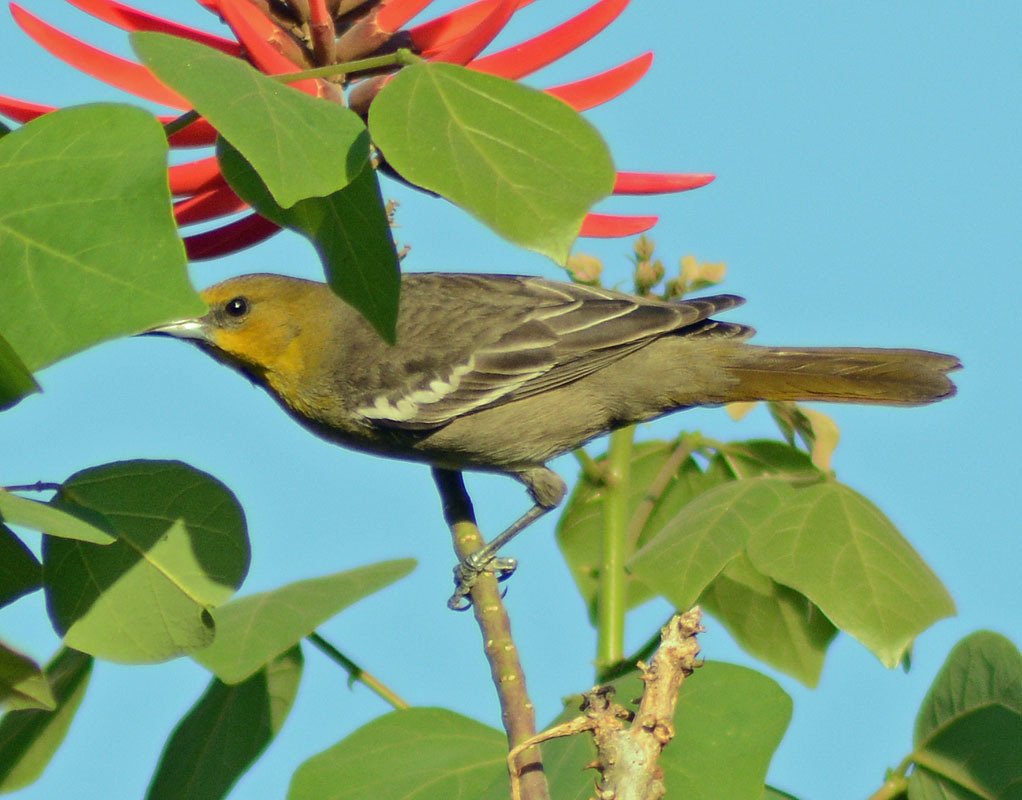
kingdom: Animalia
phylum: Chordata
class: Aves
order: Passeriformes
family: Icteridae
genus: Icterus
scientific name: Icterus abeillei
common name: Black-backed oriole
